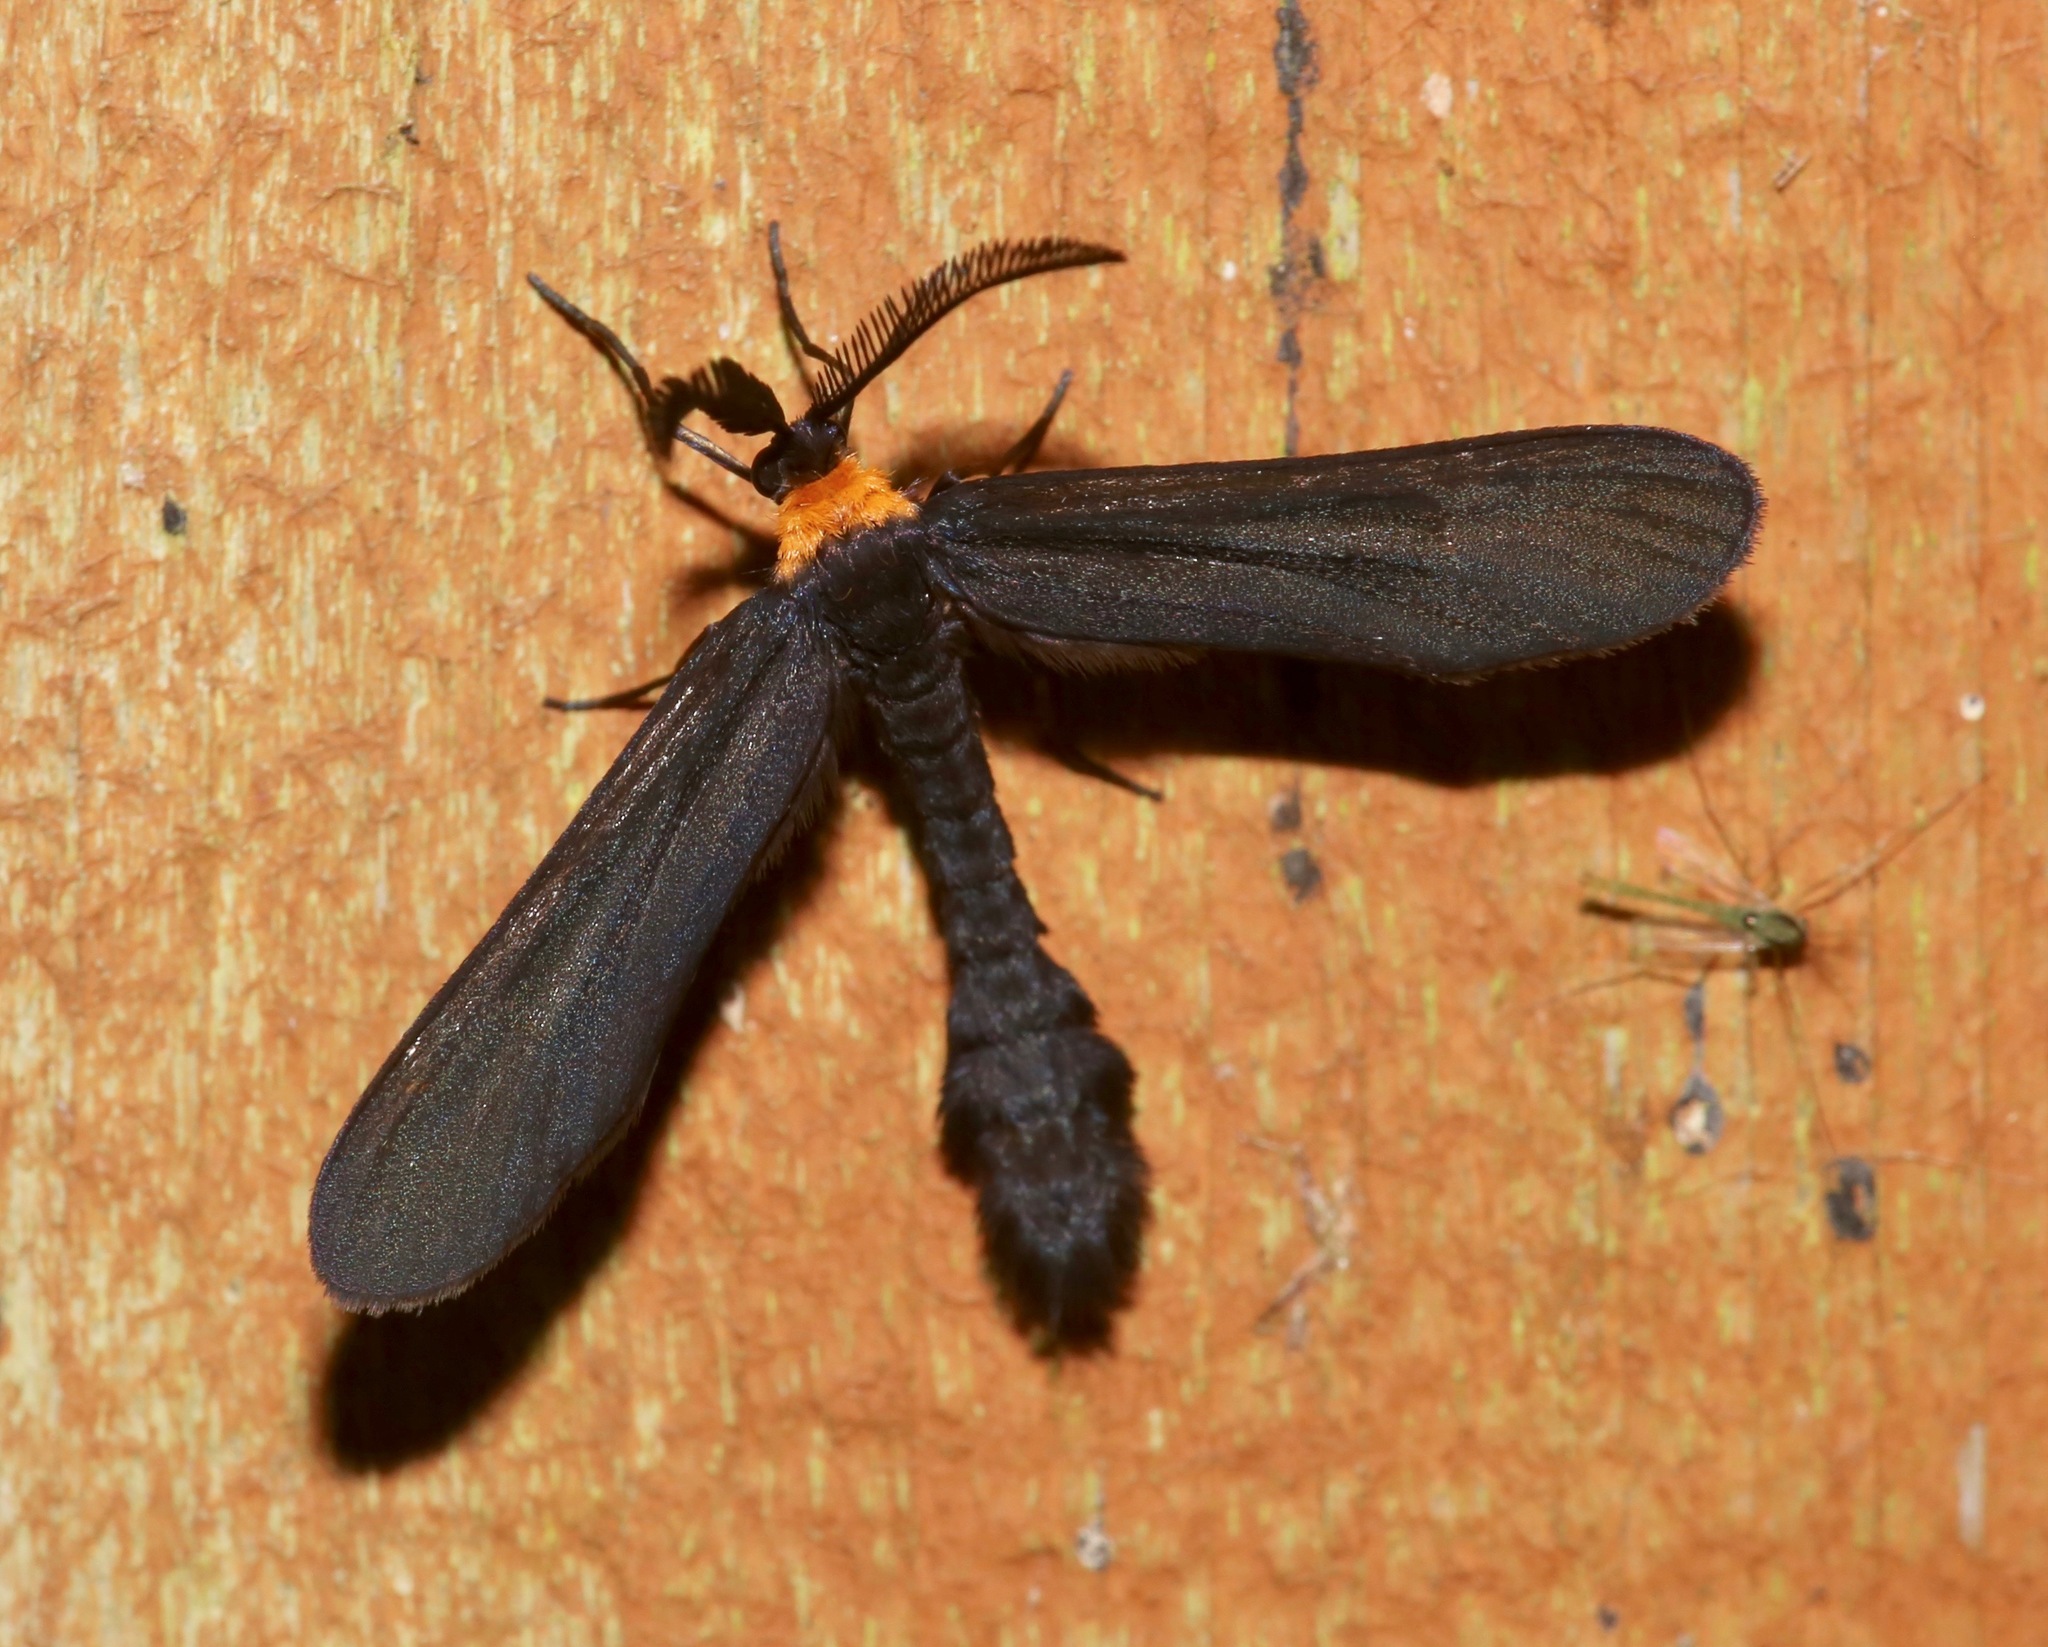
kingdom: Animalia
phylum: Arthropoda
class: Insecta
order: Lepidoptera
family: Zygaenidae
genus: Harrisina
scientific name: Harrisina americana
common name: Grapeleaf skeletonizer moth
